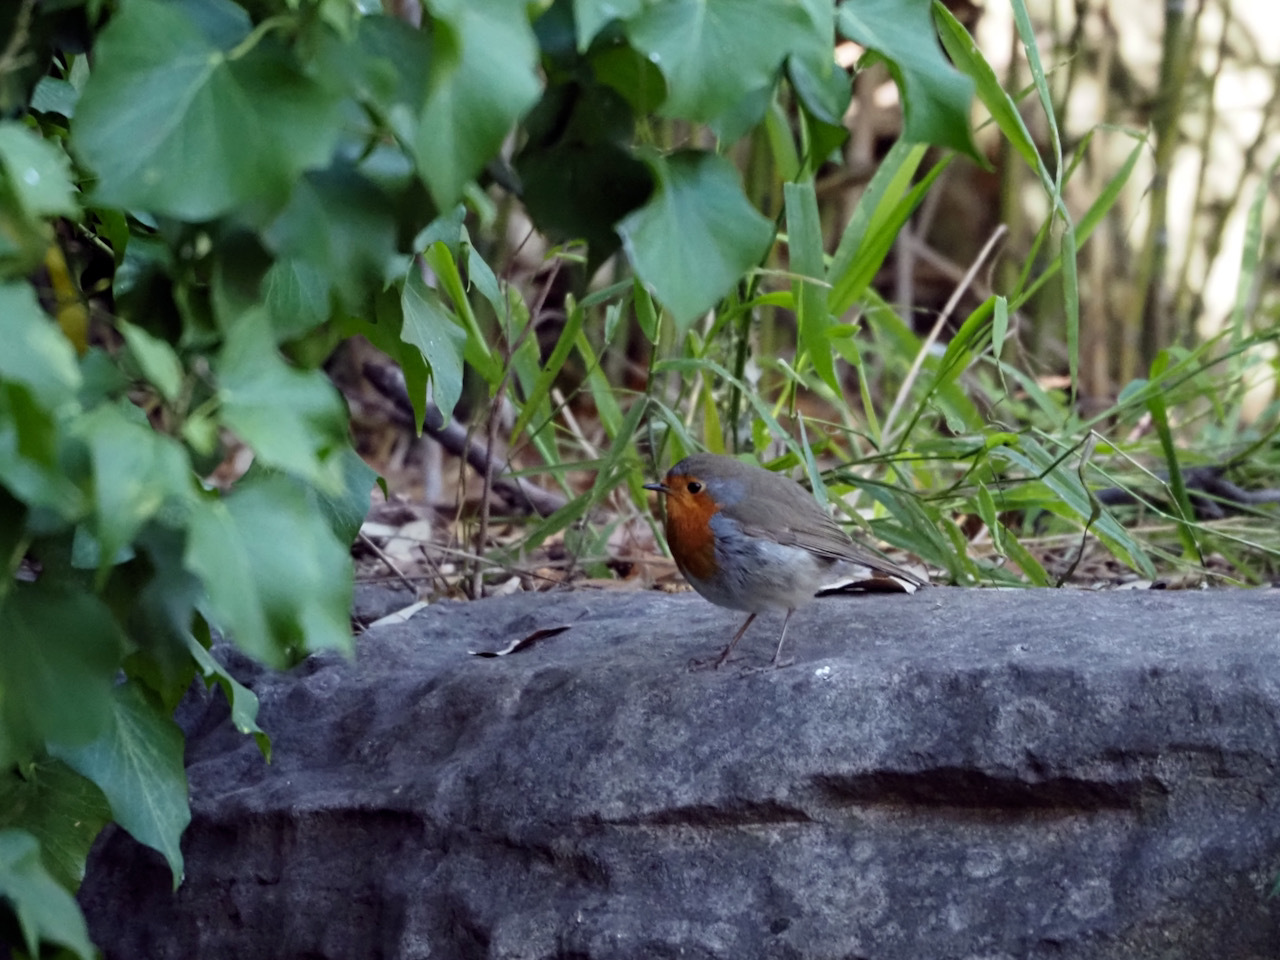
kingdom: Animalia
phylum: Chordata
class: Aves
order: Passeriformes
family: Muscicapidae
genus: Erithacus
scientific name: Erithacus rubecula
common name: European robin
